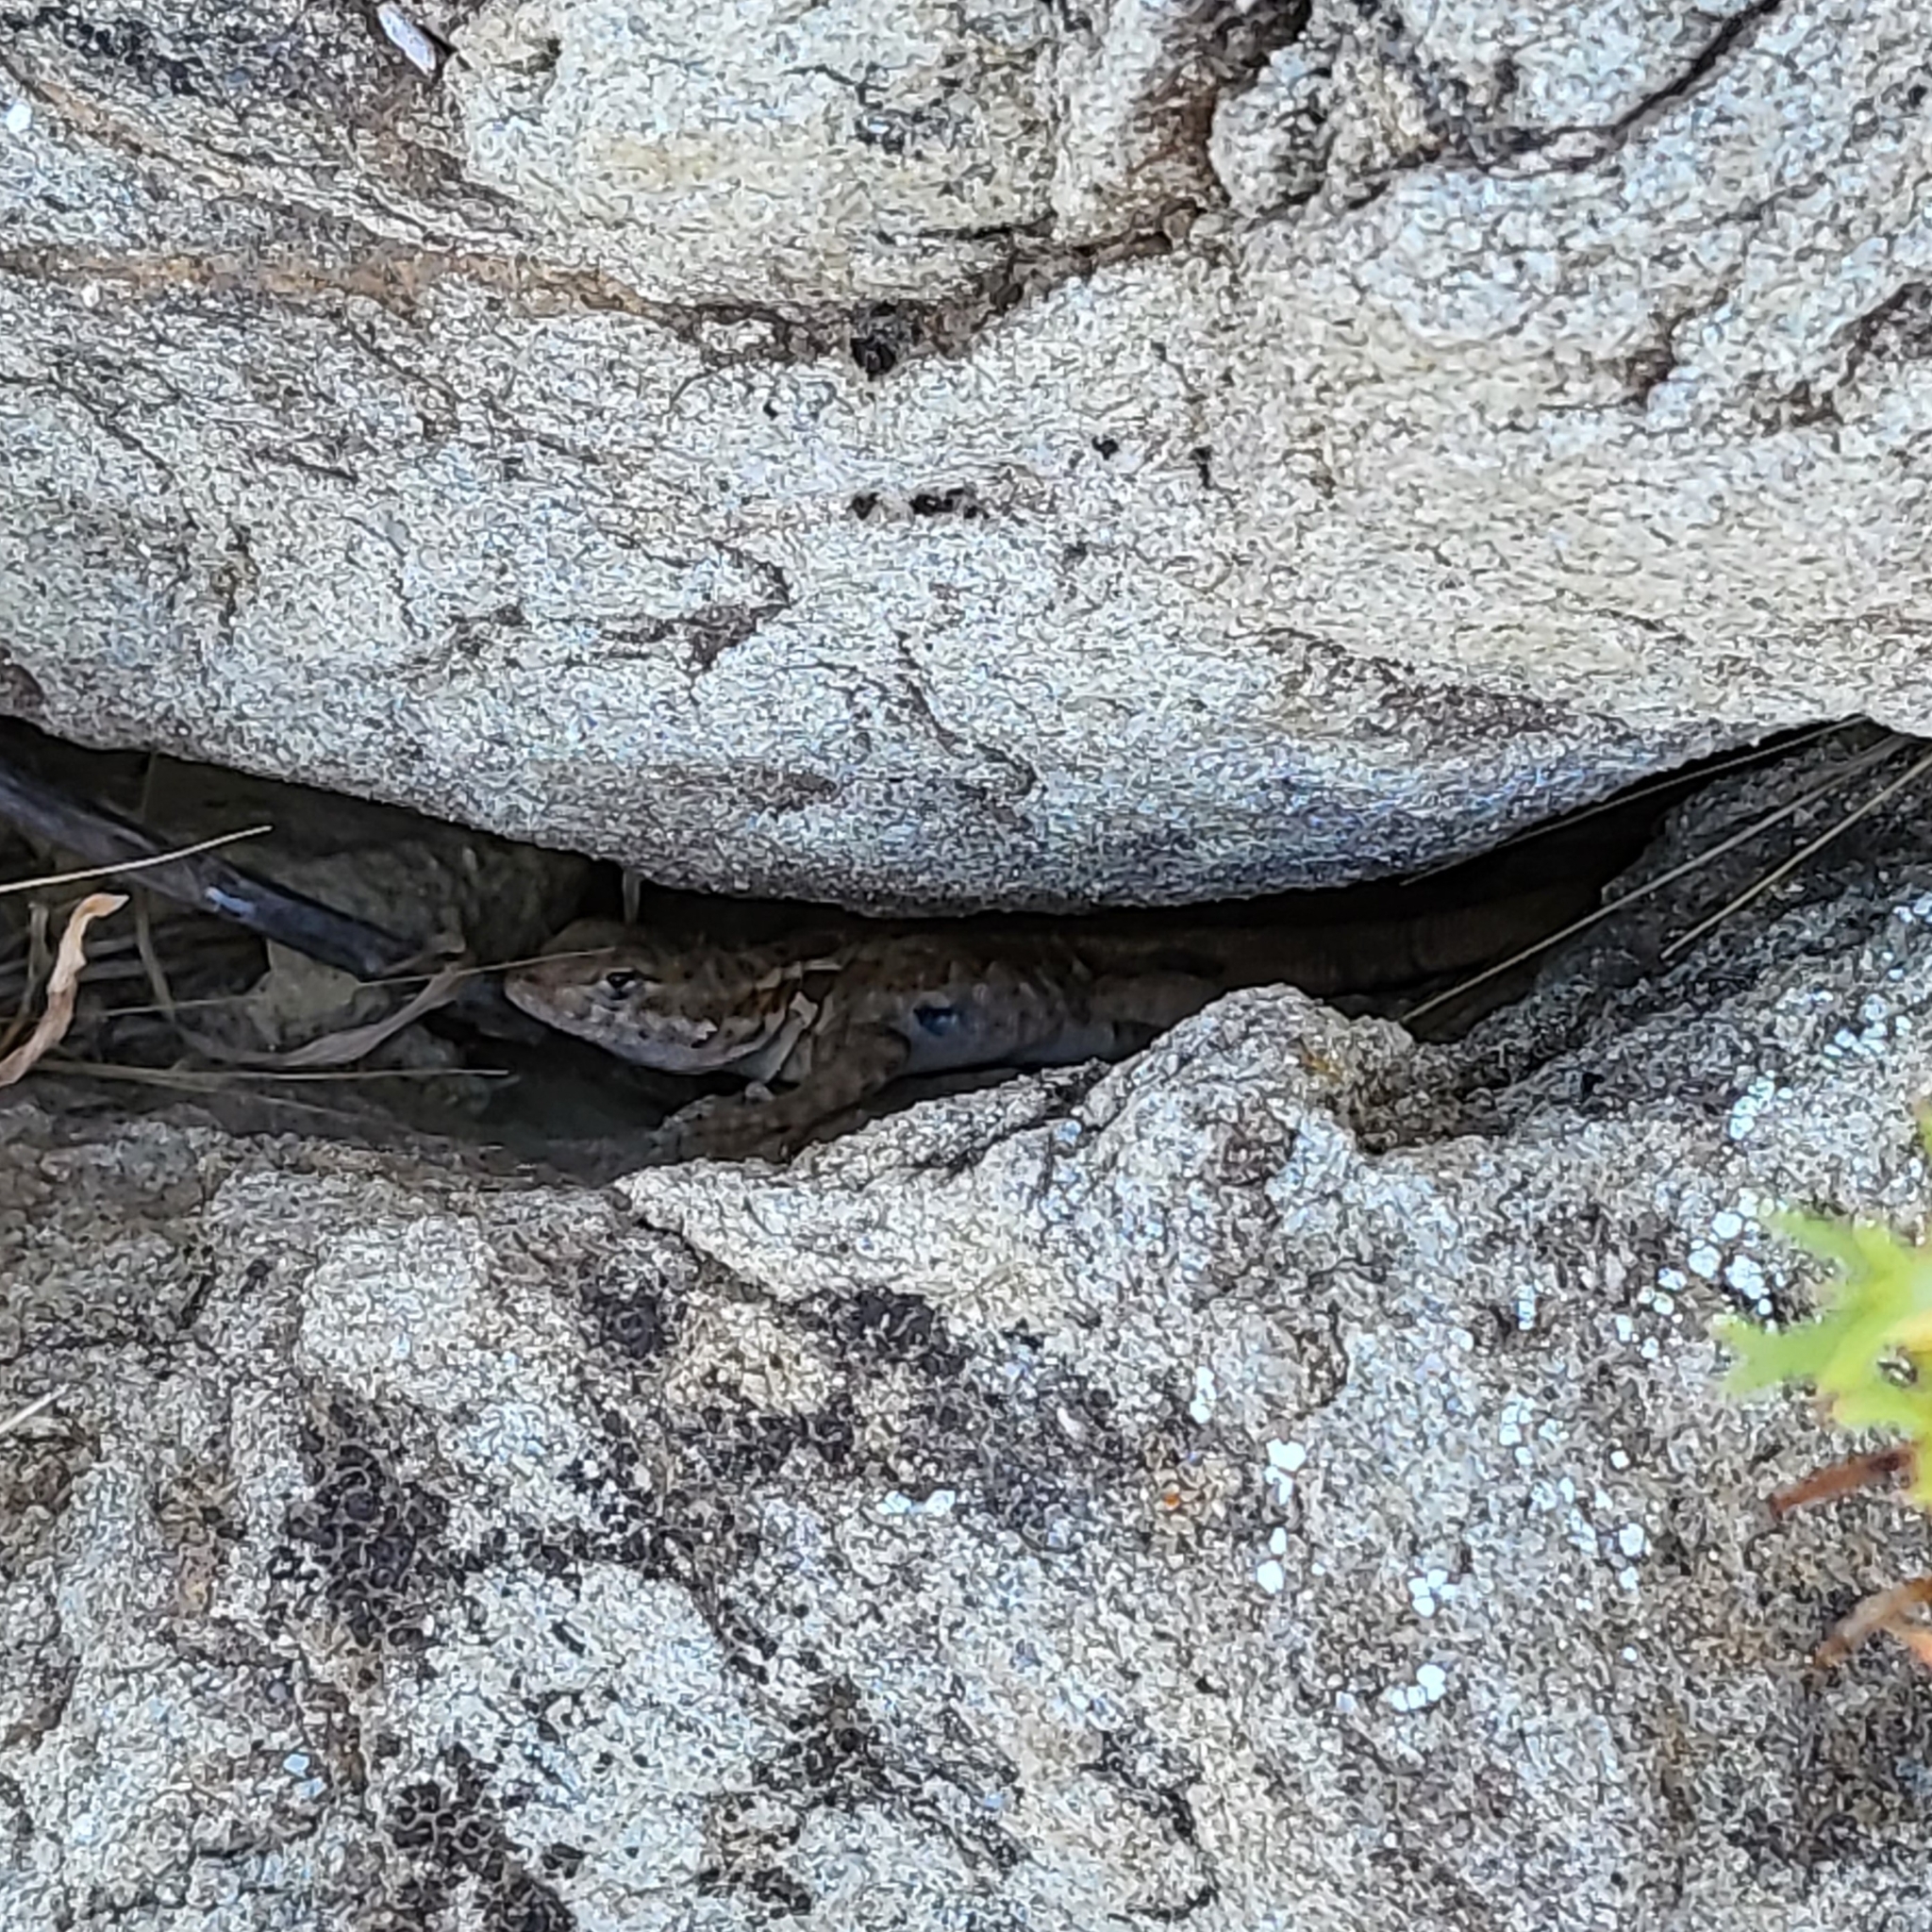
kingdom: Animalia
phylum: Chordata
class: Squamata
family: Phrynosomatidae
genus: Uta
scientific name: Uta stansburiana
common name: Side-blotched lizard
